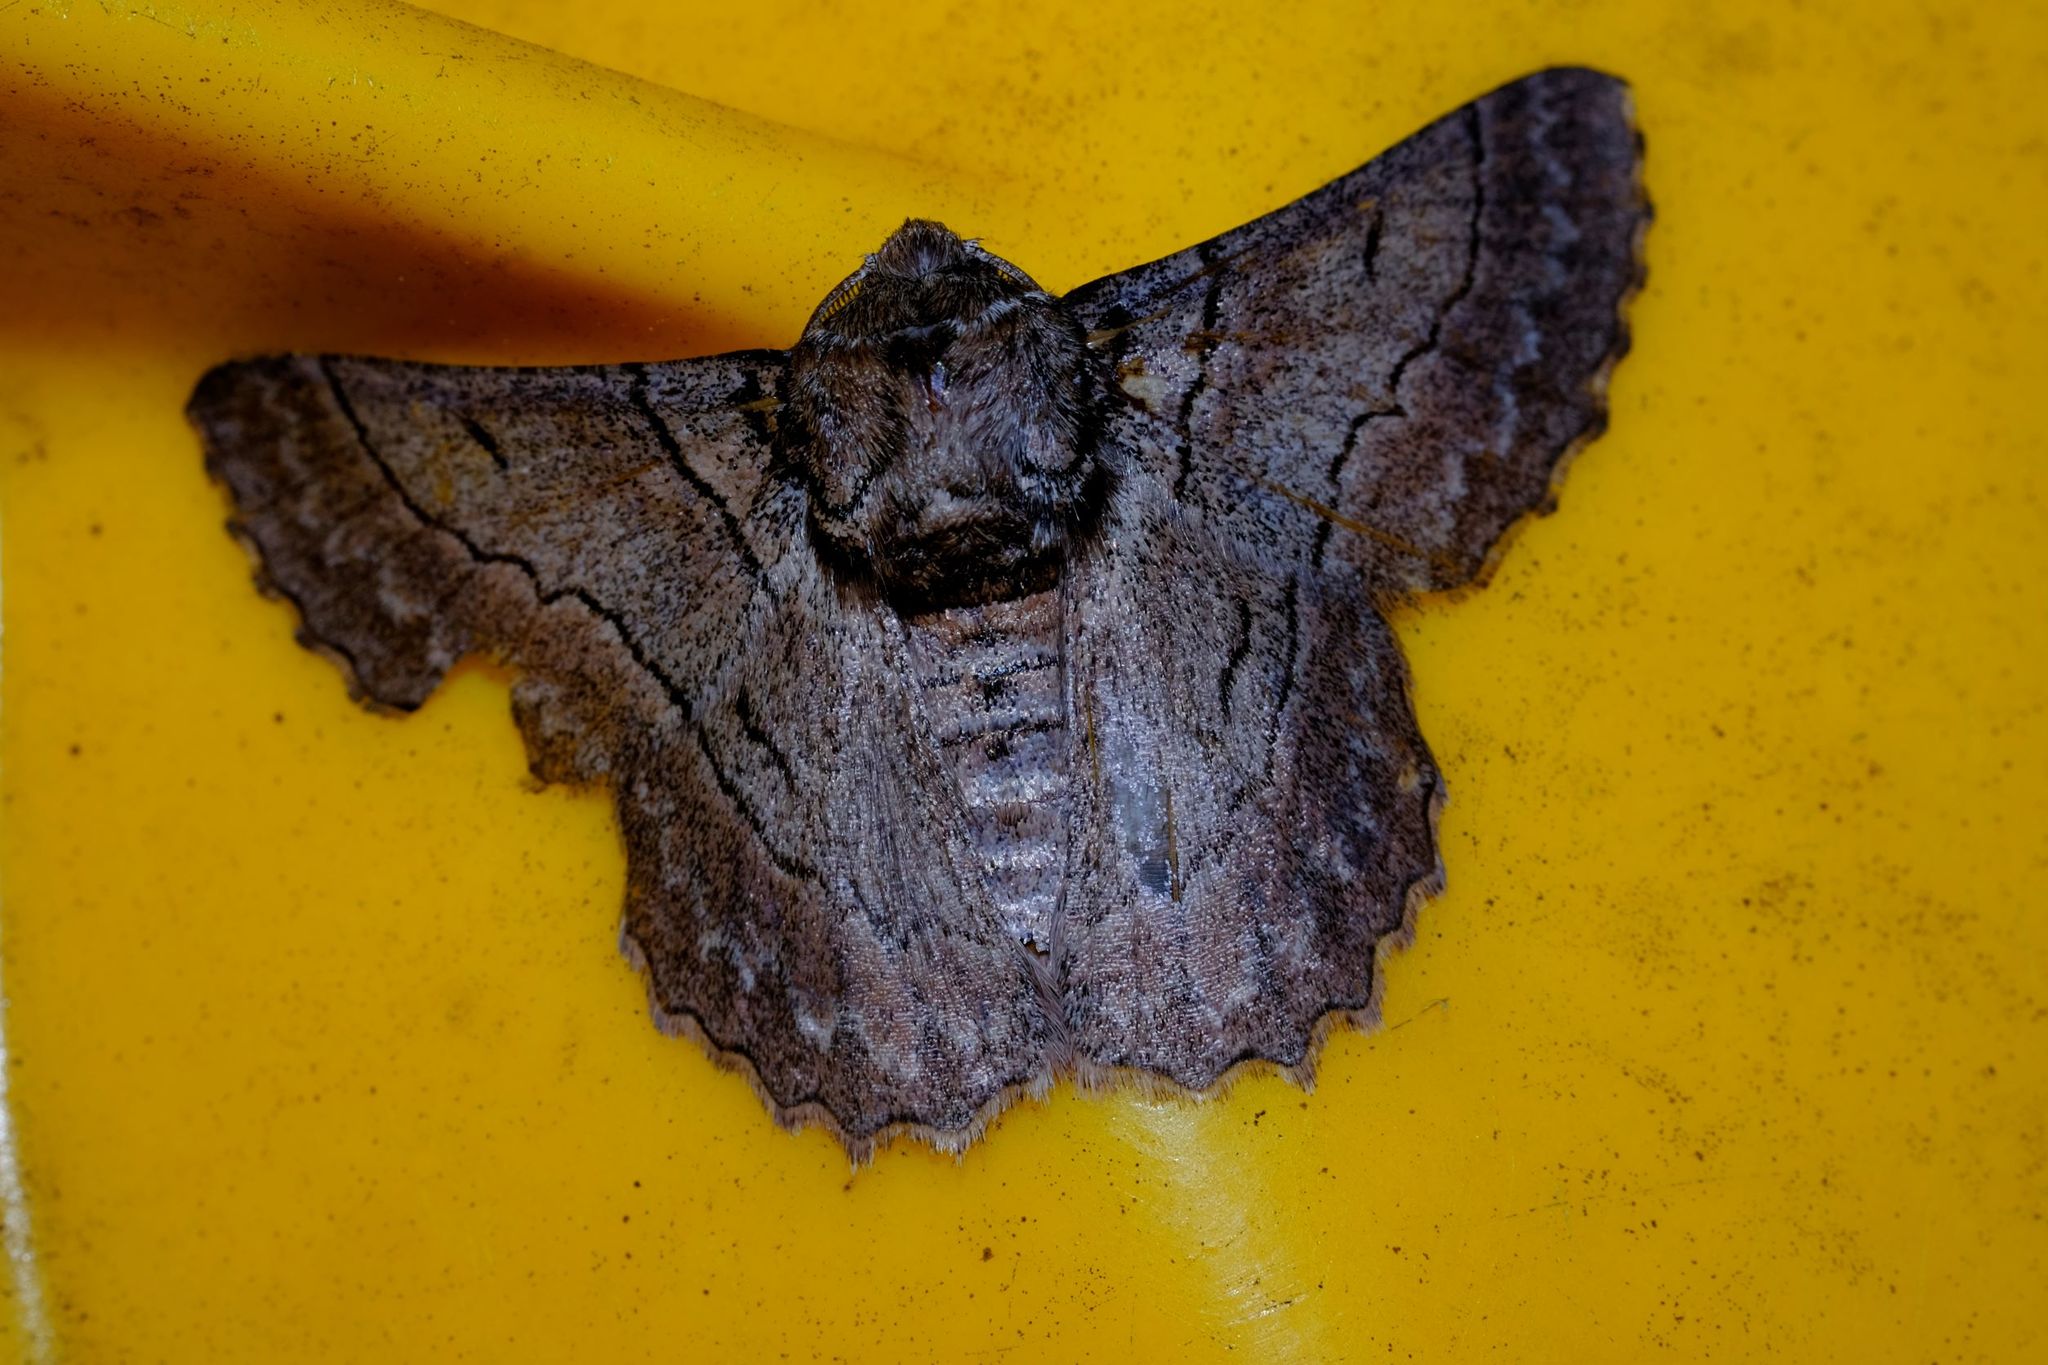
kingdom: Animalia
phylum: Arthropoda
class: Insecta
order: Lepidoptera
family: Geometridae
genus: Hypobapta
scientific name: Hypobapta tachyhalotaria
